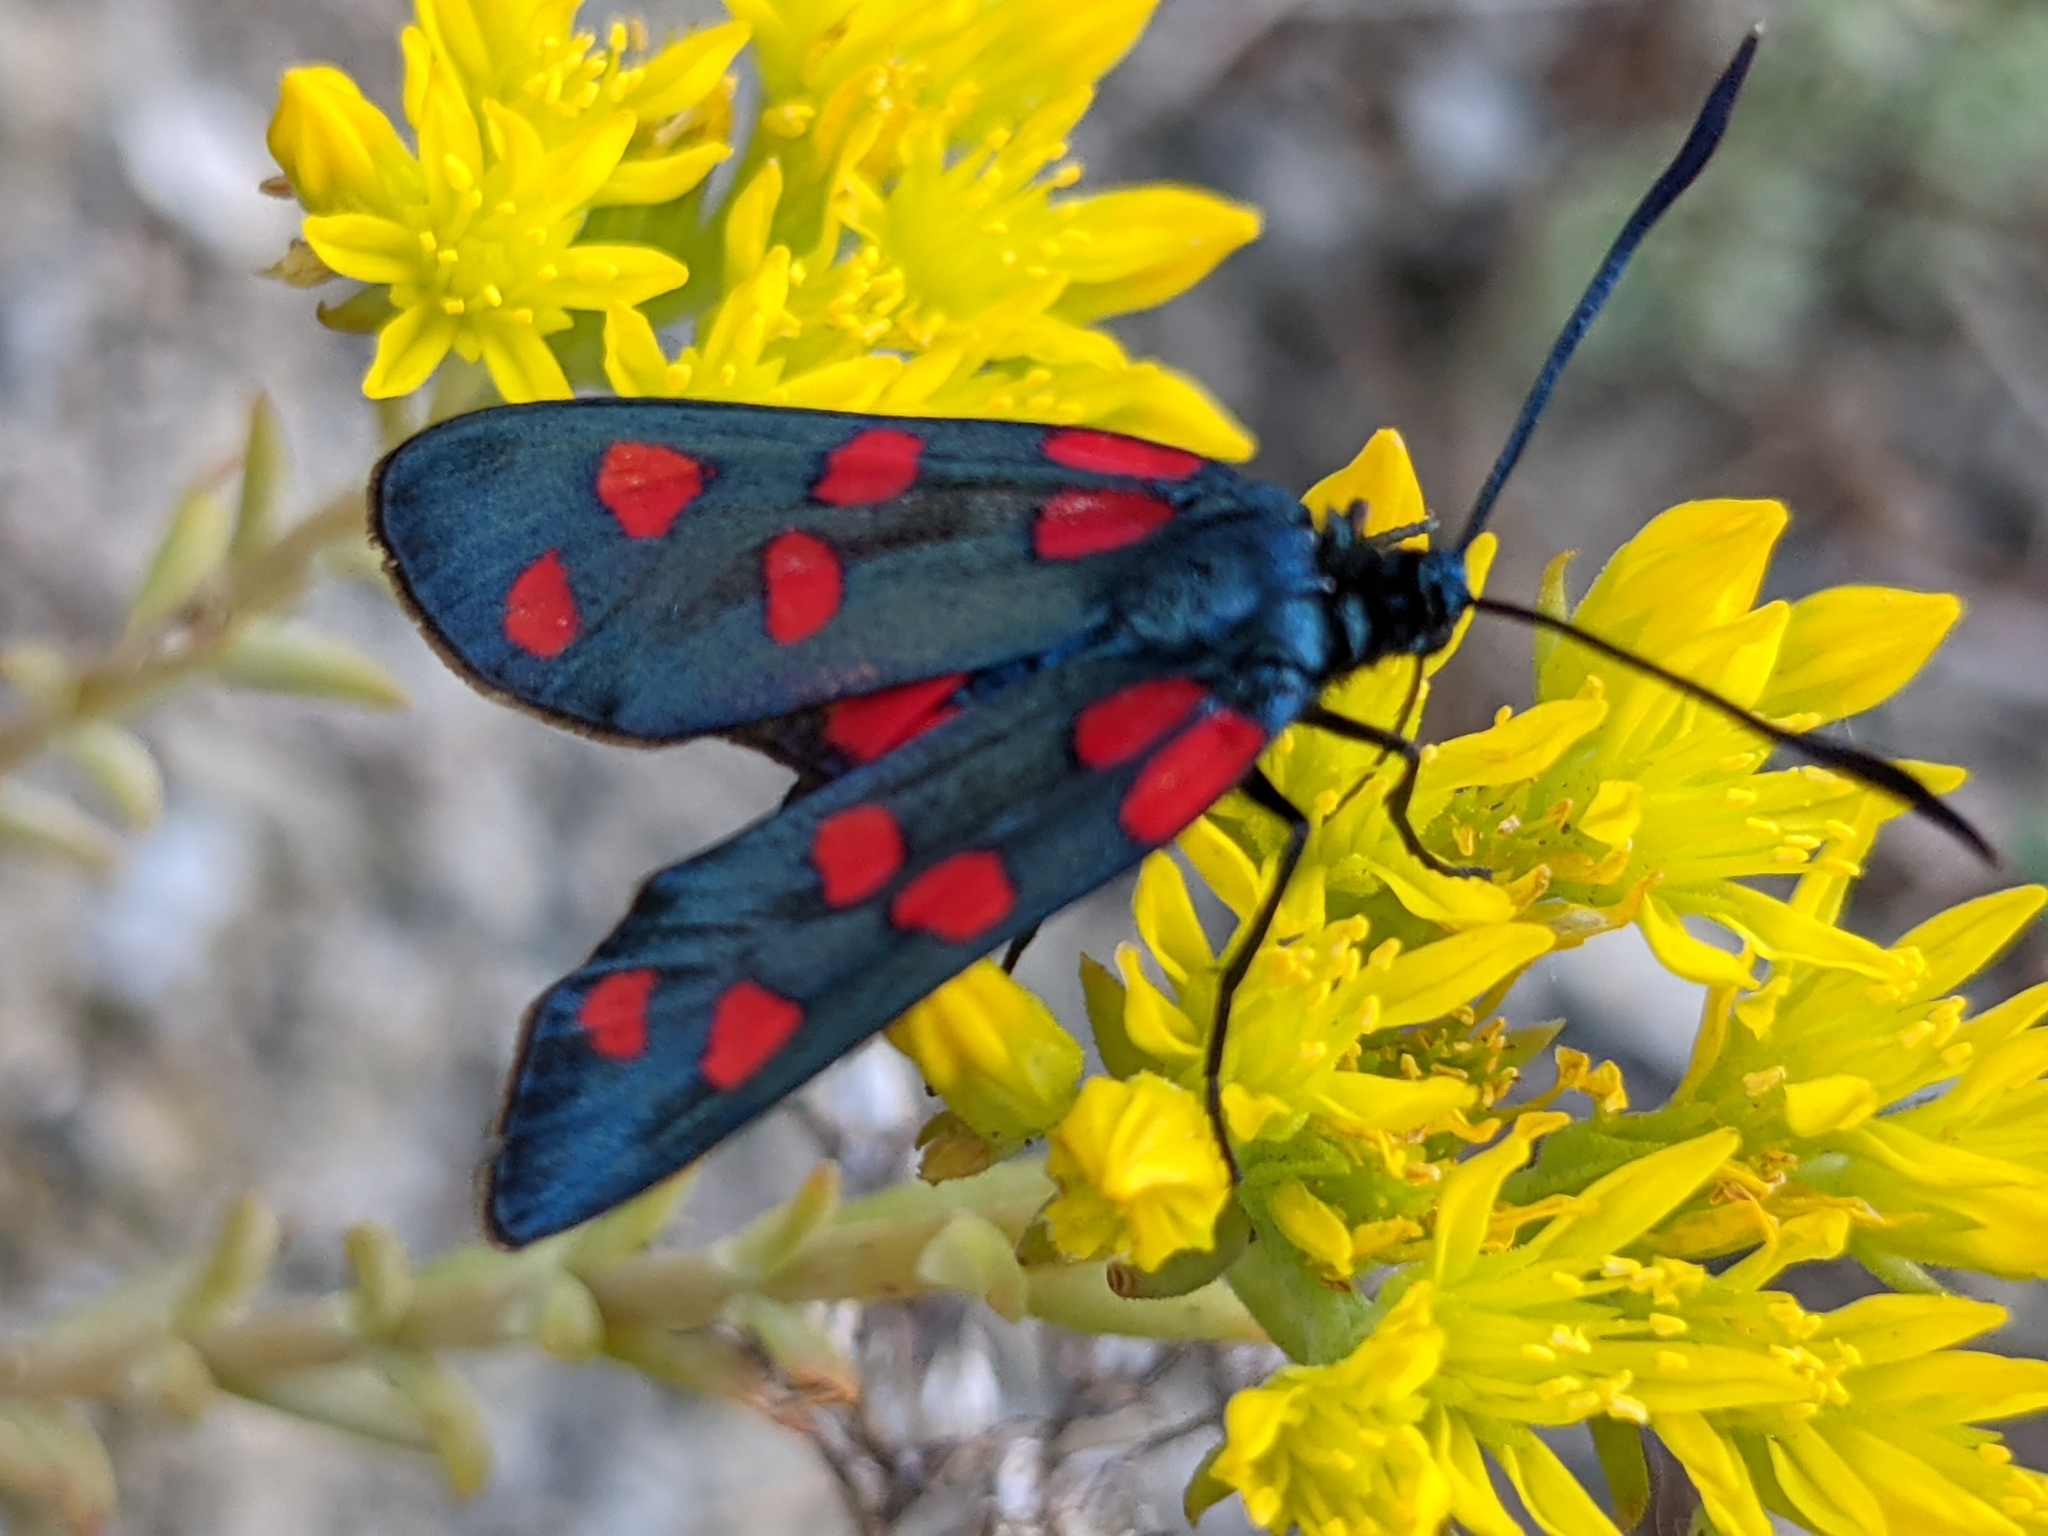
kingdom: Animalia
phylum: Arthropoda
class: Insecta
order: Lepidoptera
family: Zygaenidae
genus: Zygaena
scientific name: Zygaena transalpina
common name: Southern six spot burnet
